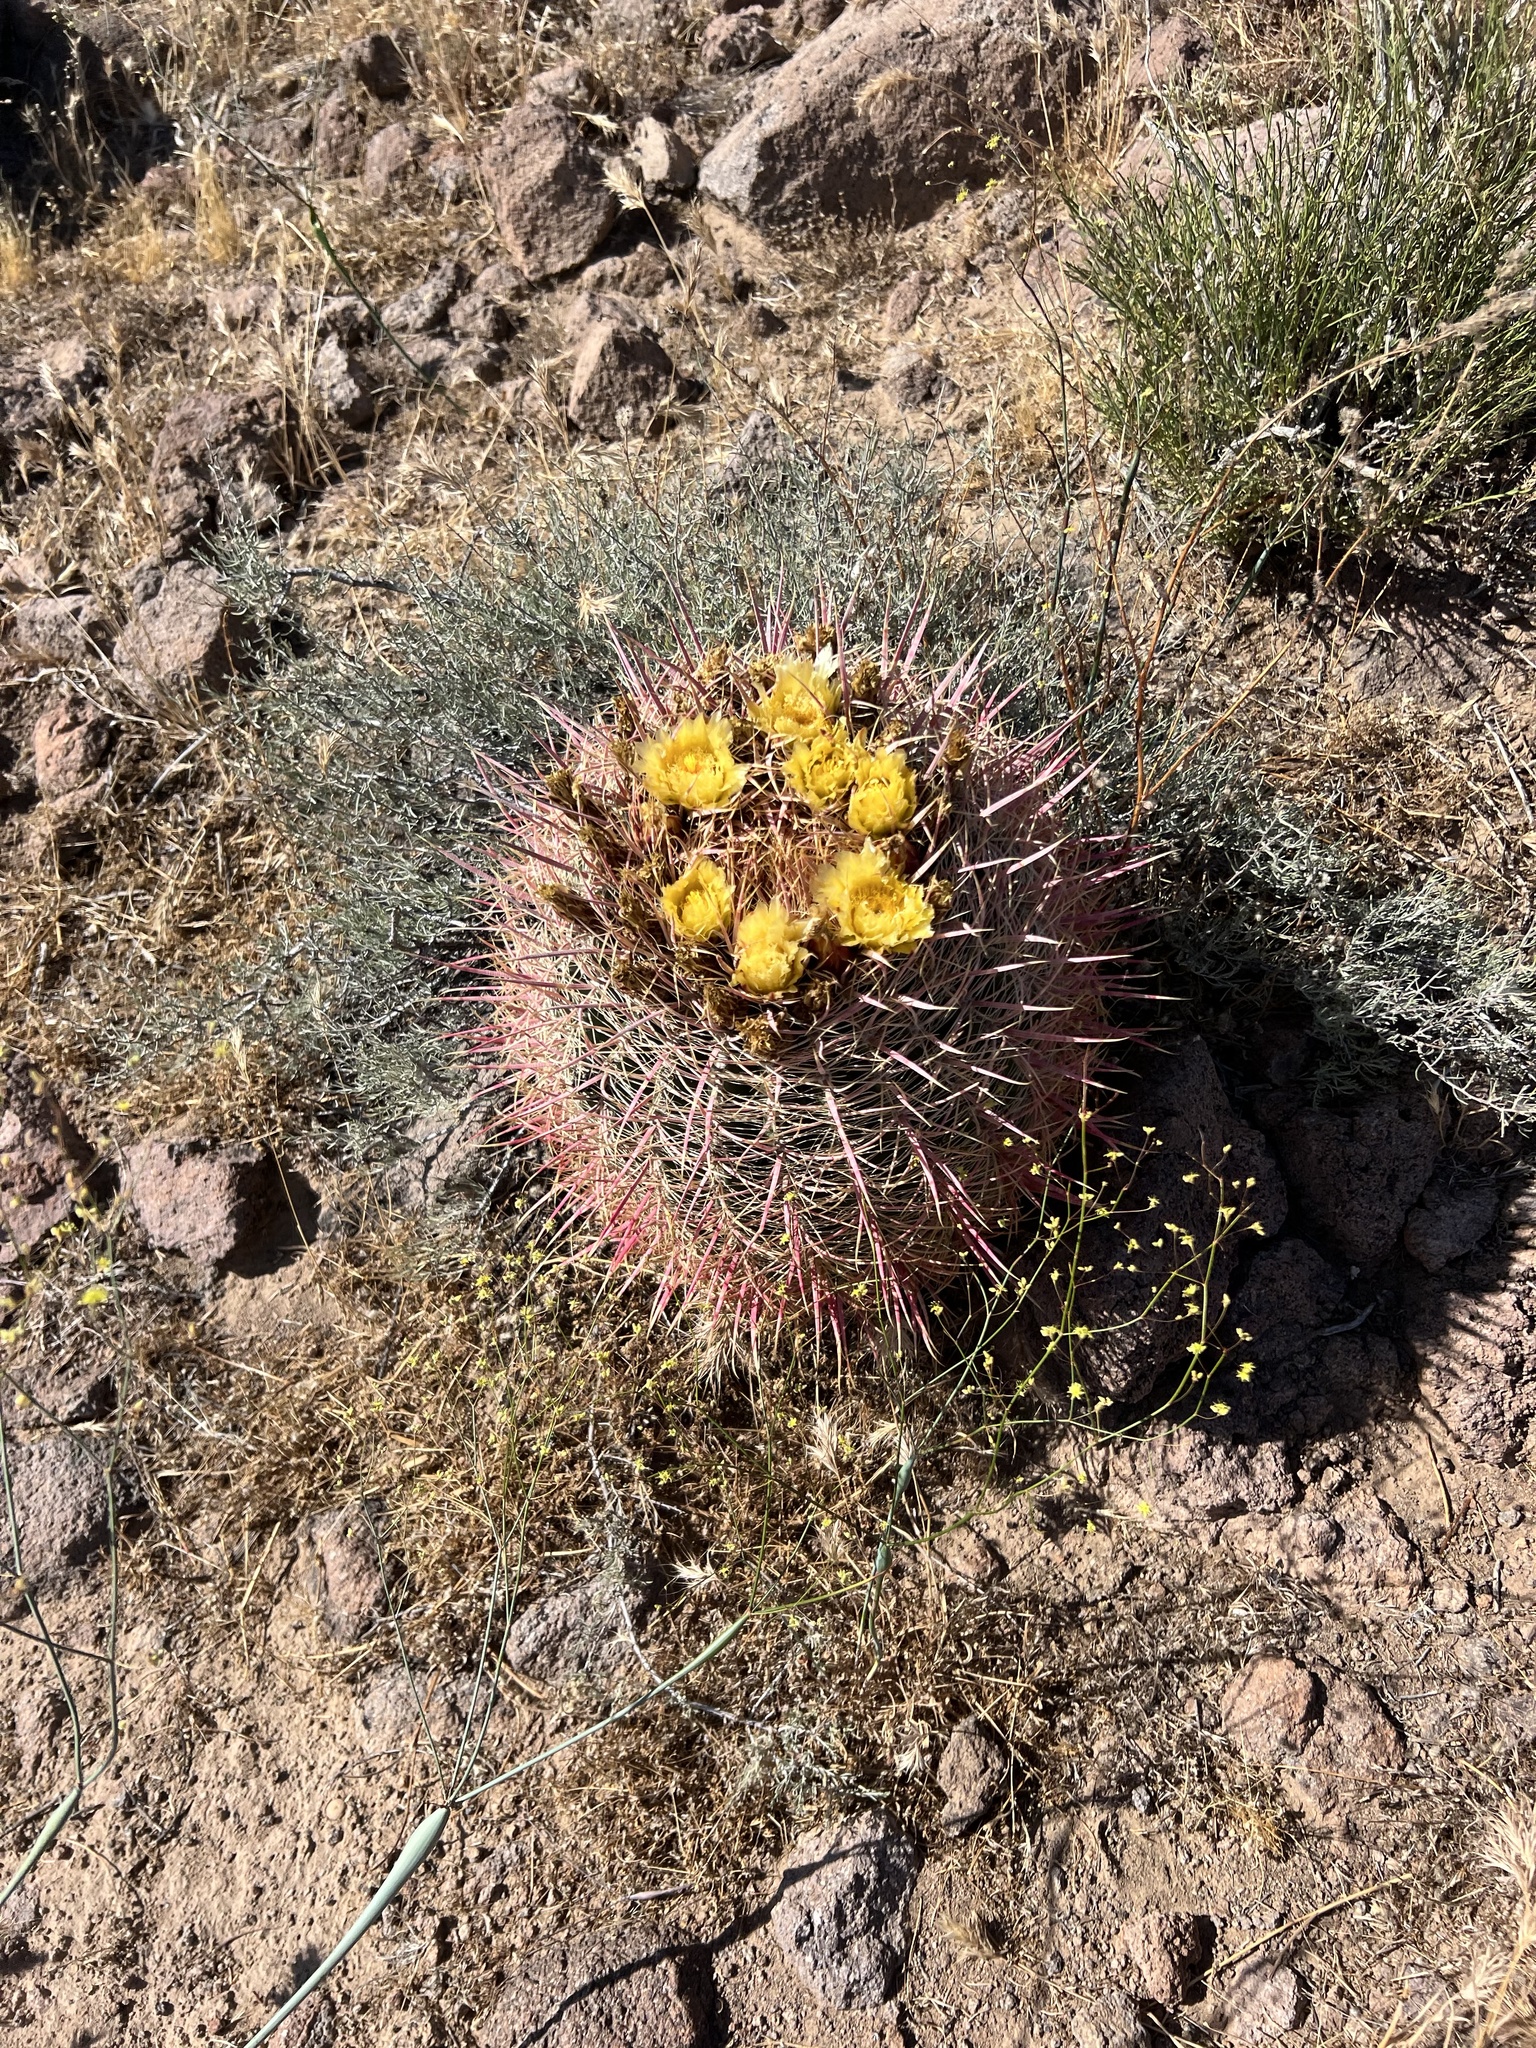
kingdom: Plantae
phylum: Tracheophyta
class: Magnoliopsida
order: Caryophyllales
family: Cactaceae
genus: Ferocactus
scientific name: Ferocactus cylindraceus
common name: California barrel cactus
